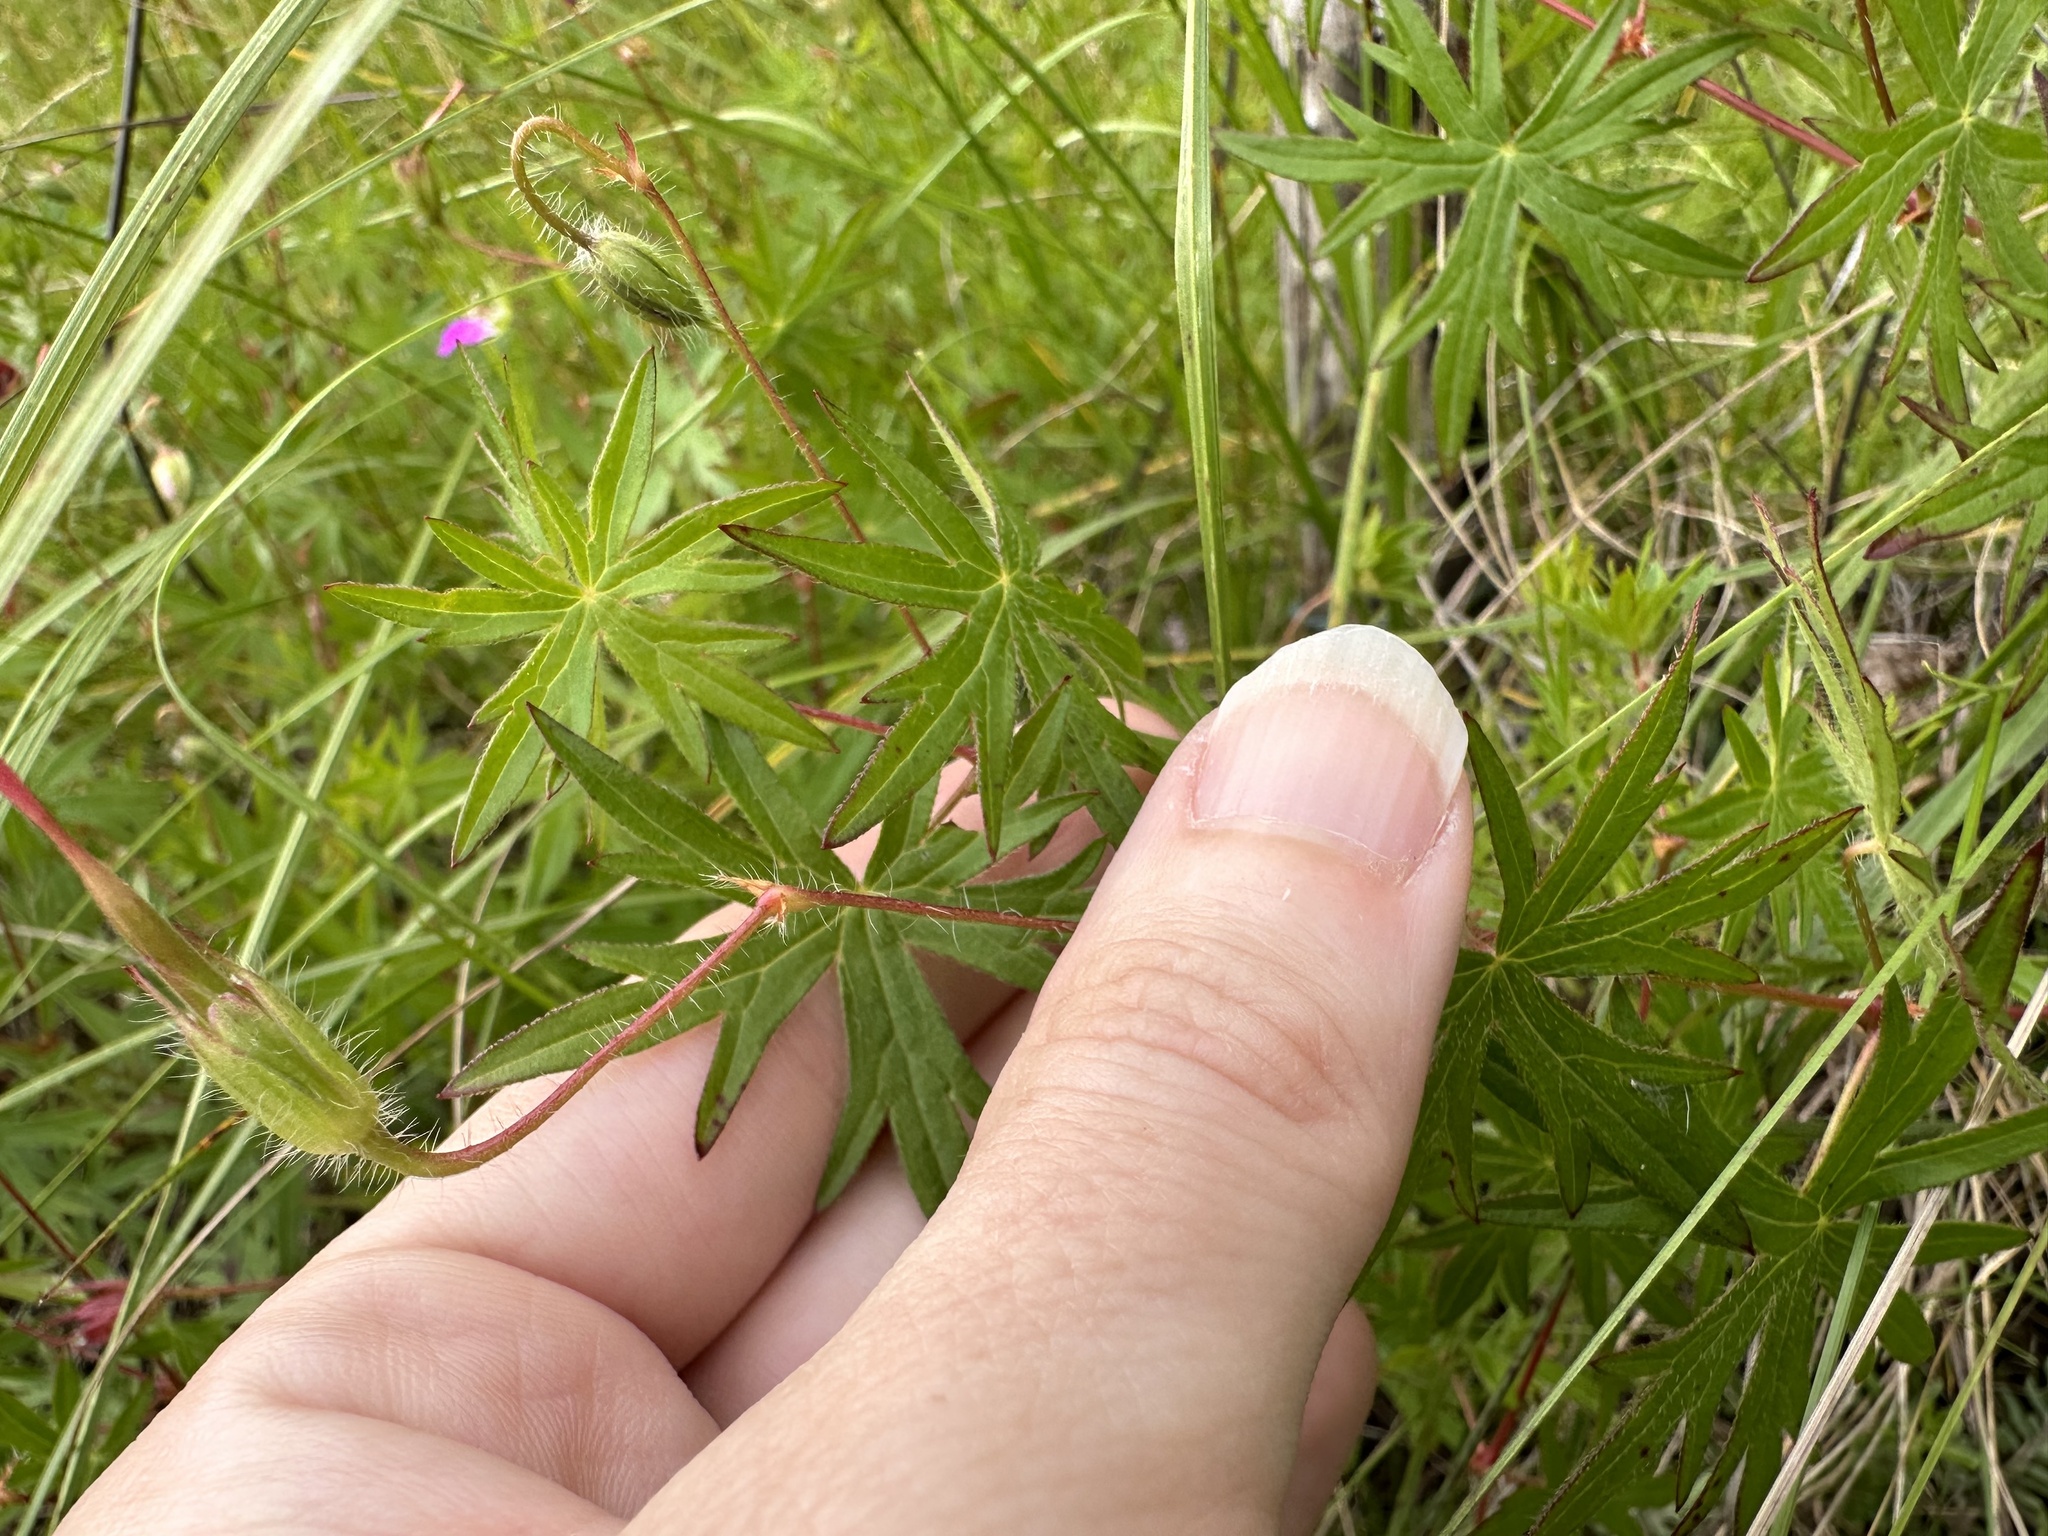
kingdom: Plantae
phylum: Tracheophyta
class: Magnoliopsida
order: Geraniales
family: Geraniaceae
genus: Geranium
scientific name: Geranium sanguineum
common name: Bloody crane's-bill
